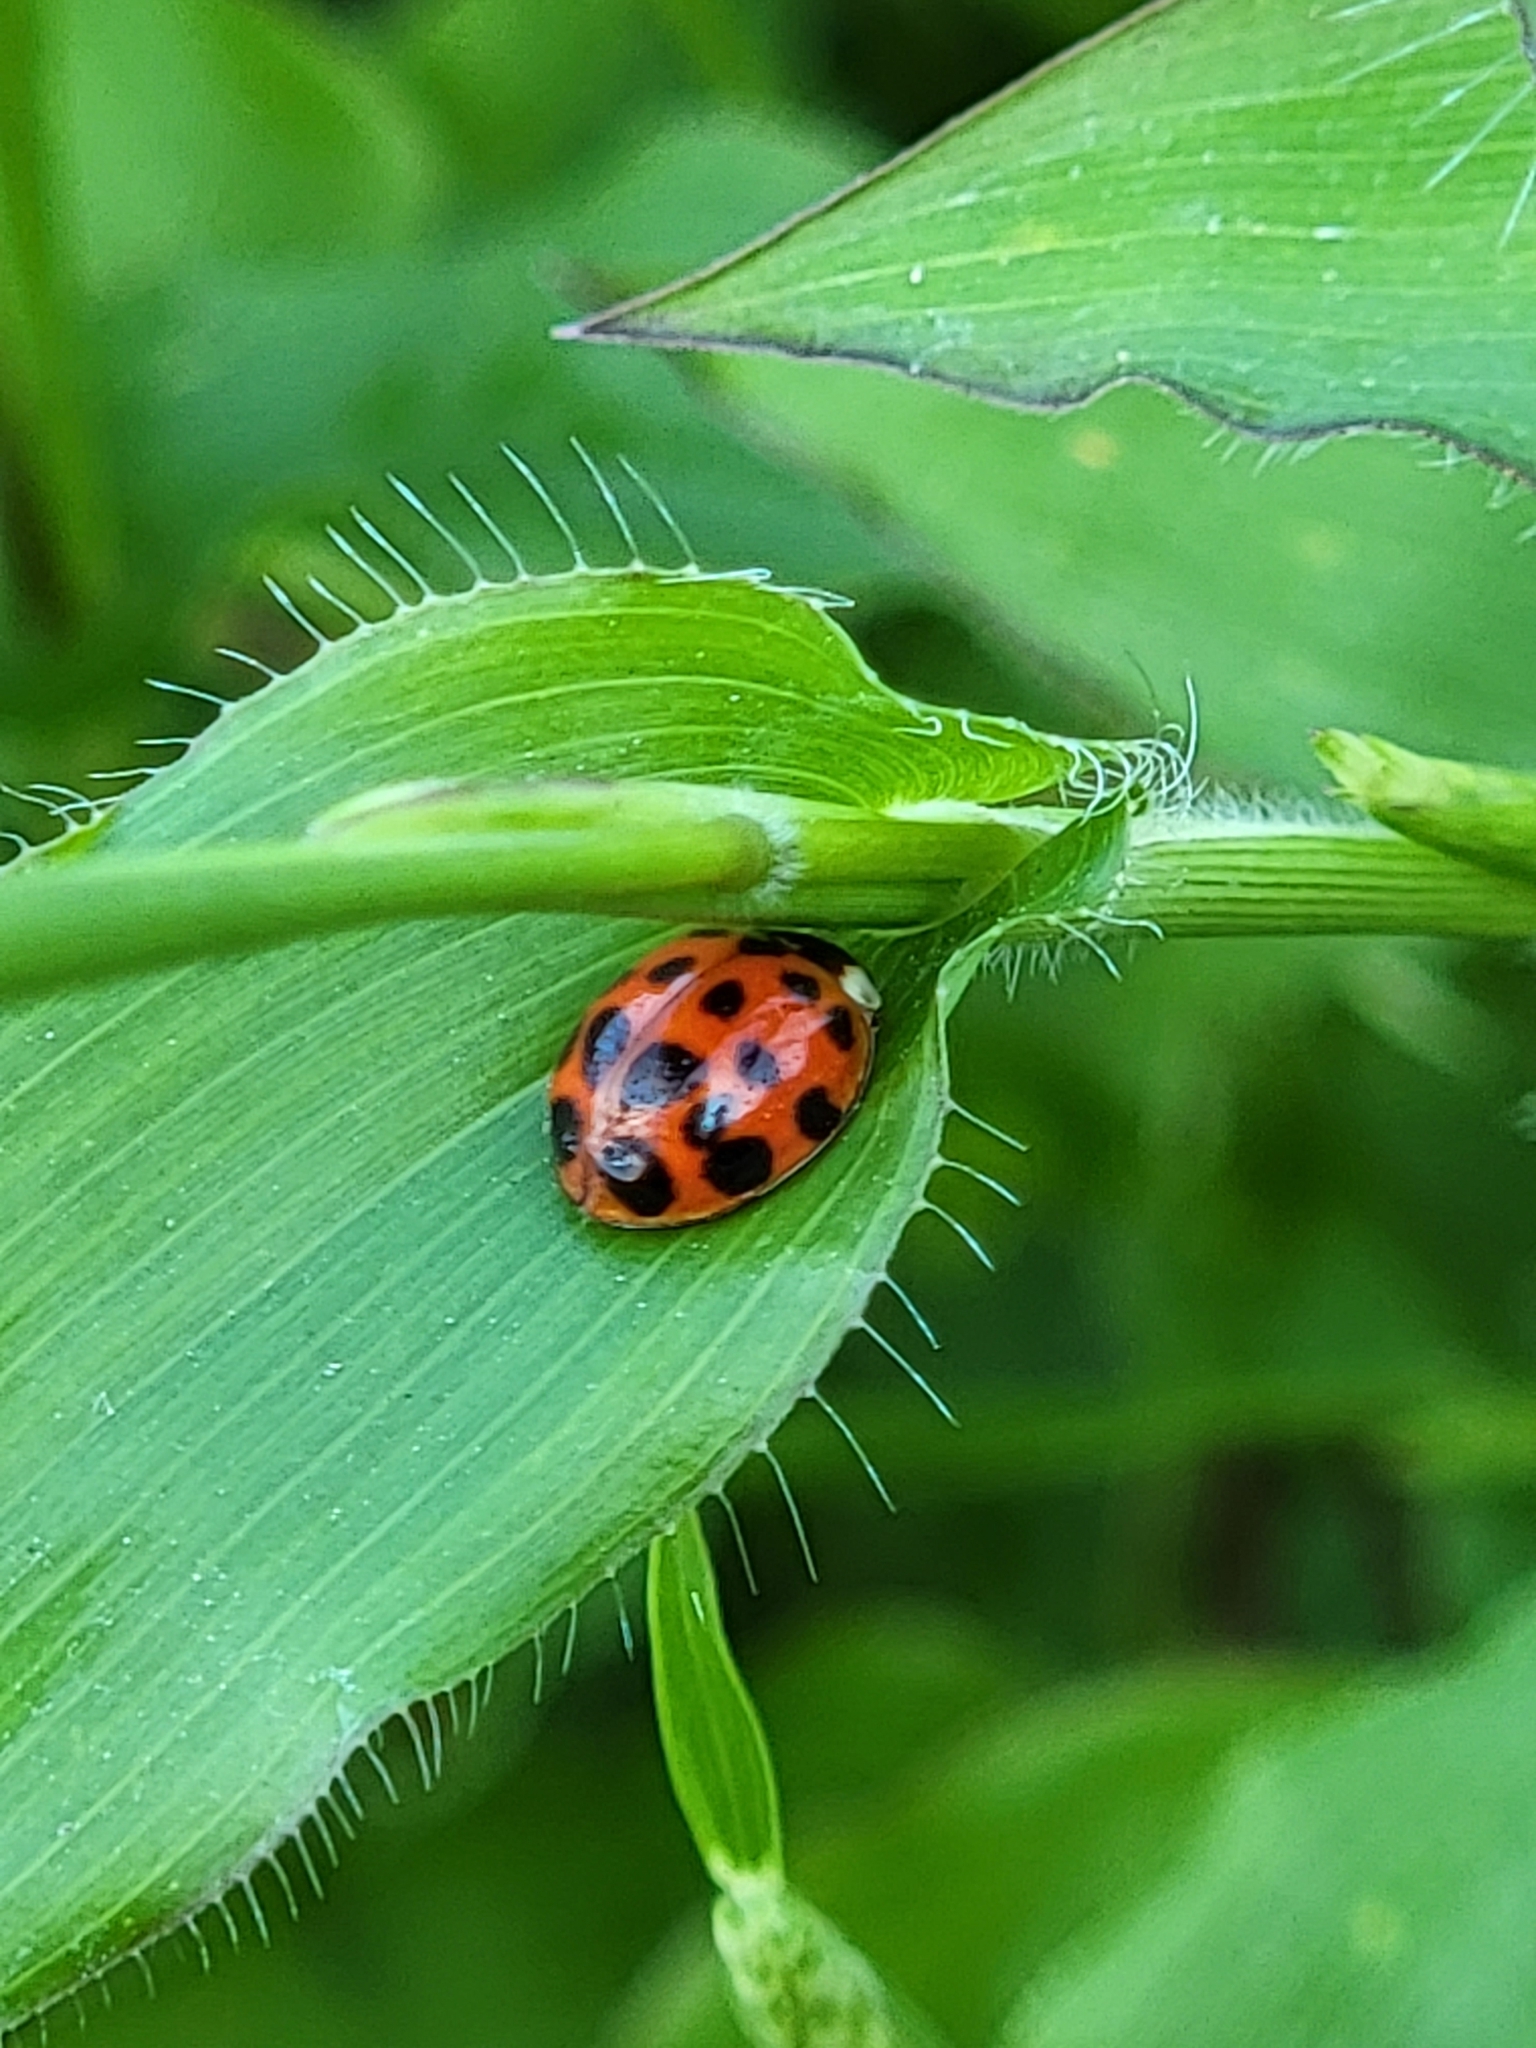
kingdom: Animalia
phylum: Arthropoda
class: Insecta
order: Coleoptera
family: Coccinellidae
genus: Harmonia
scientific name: Harmonia axyridis
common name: Harlequin ladybird
